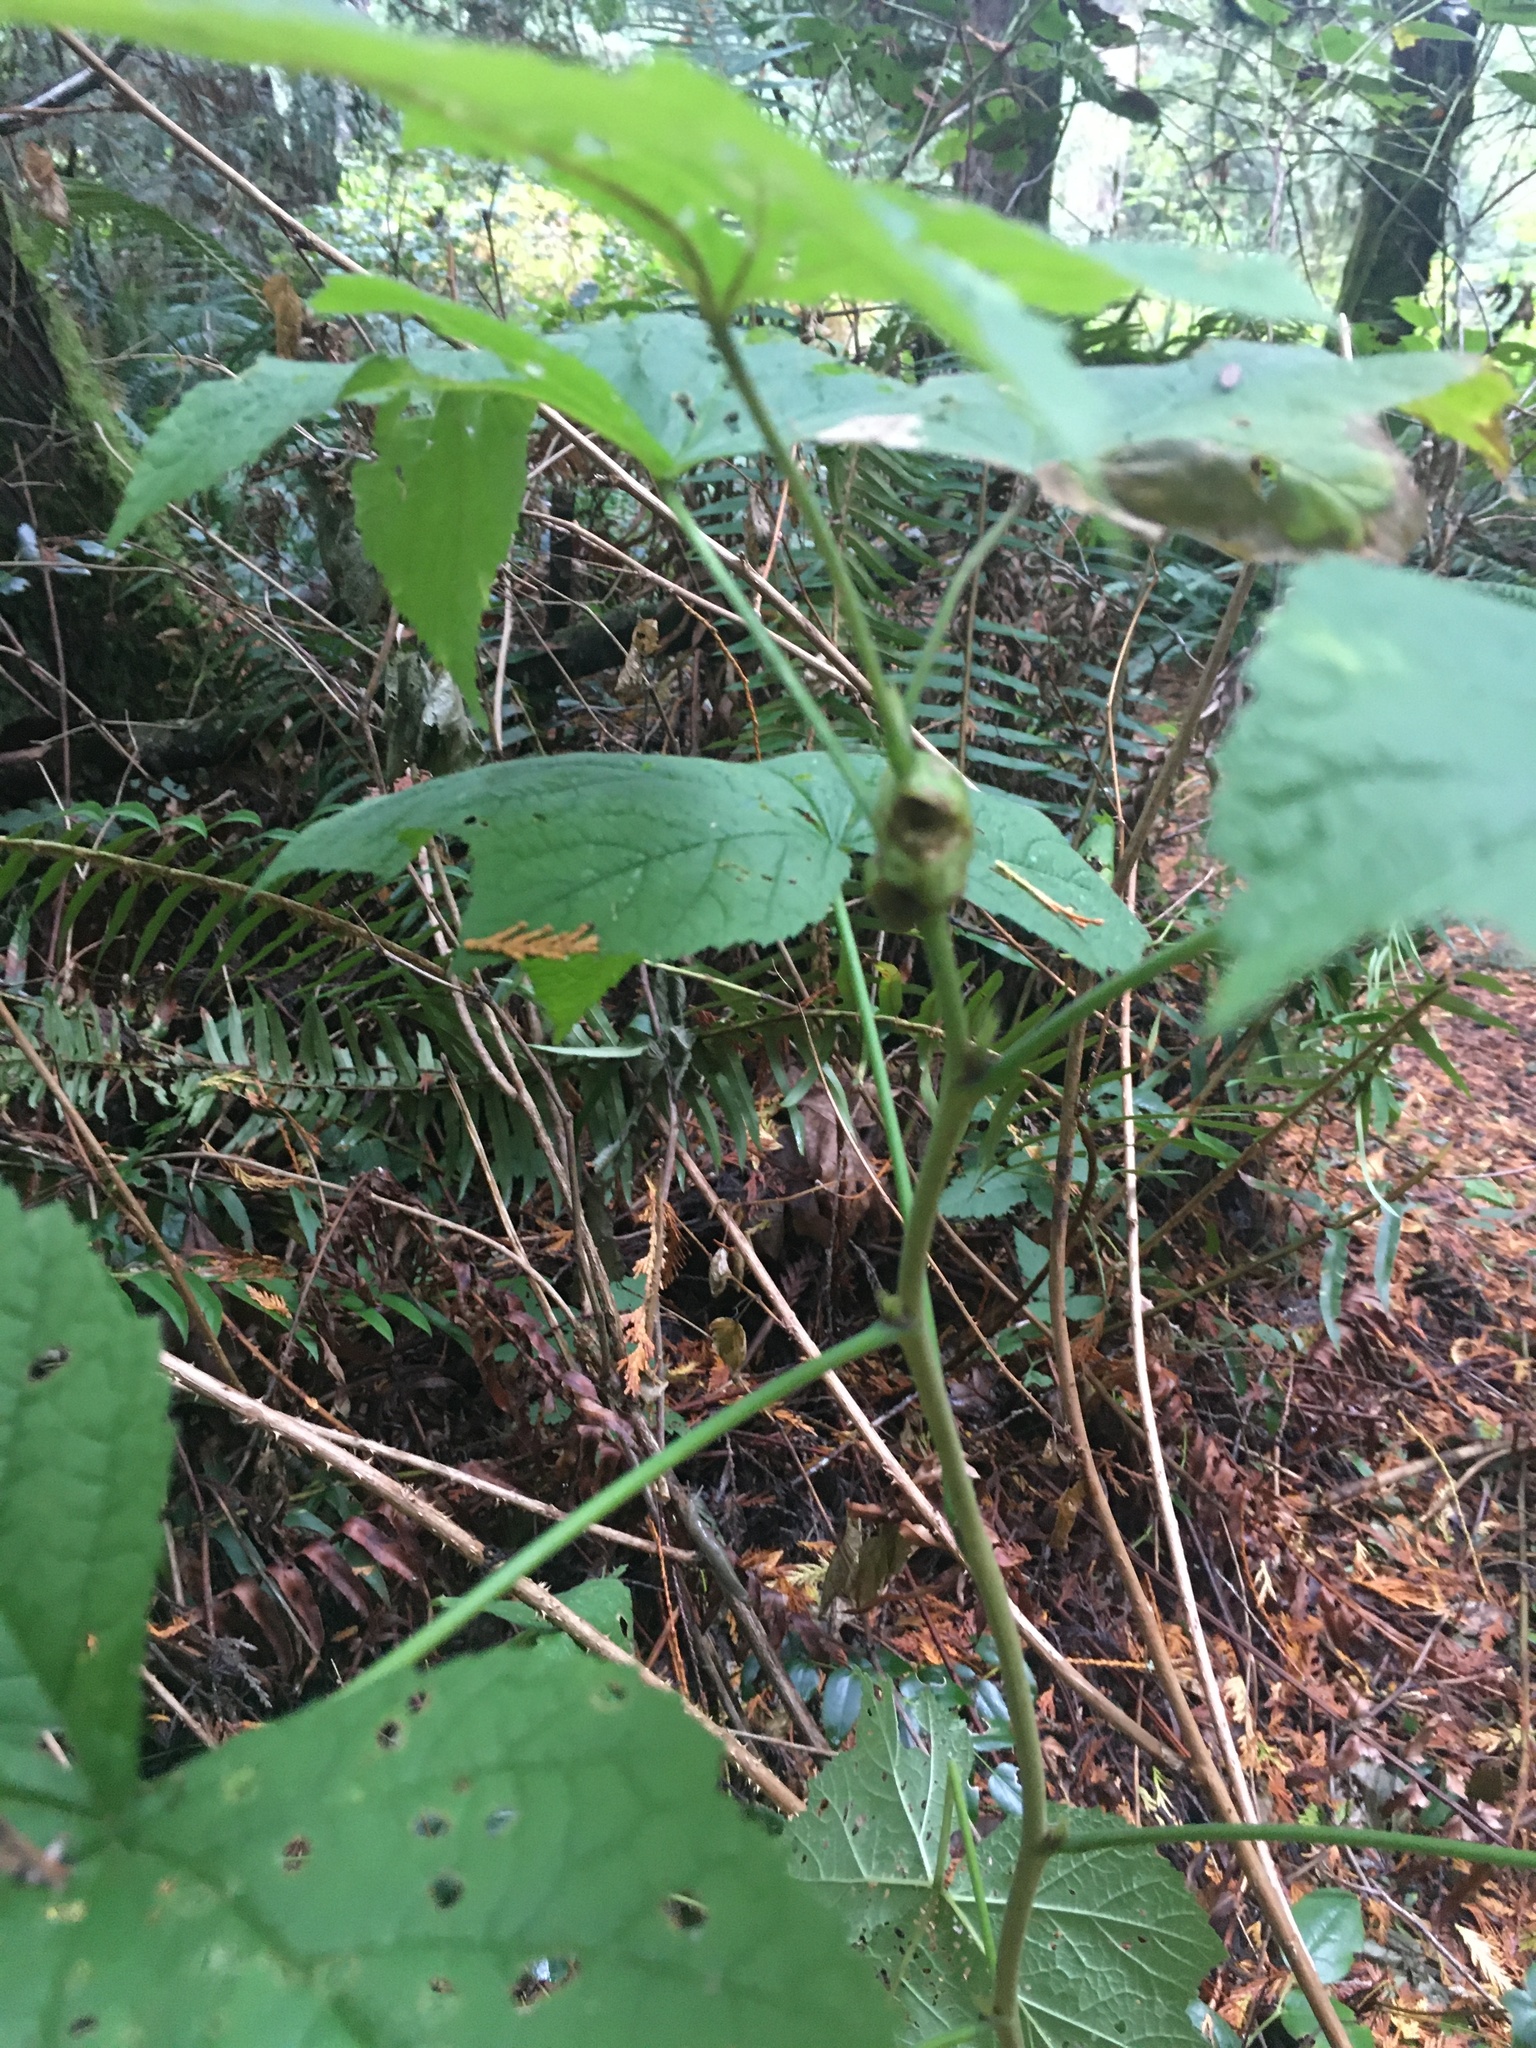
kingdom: Animalia
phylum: Arthropoda
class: Insecta
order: Hymenoptera
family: Cynipidae
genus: Diastrophus
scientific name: Diastrophus
